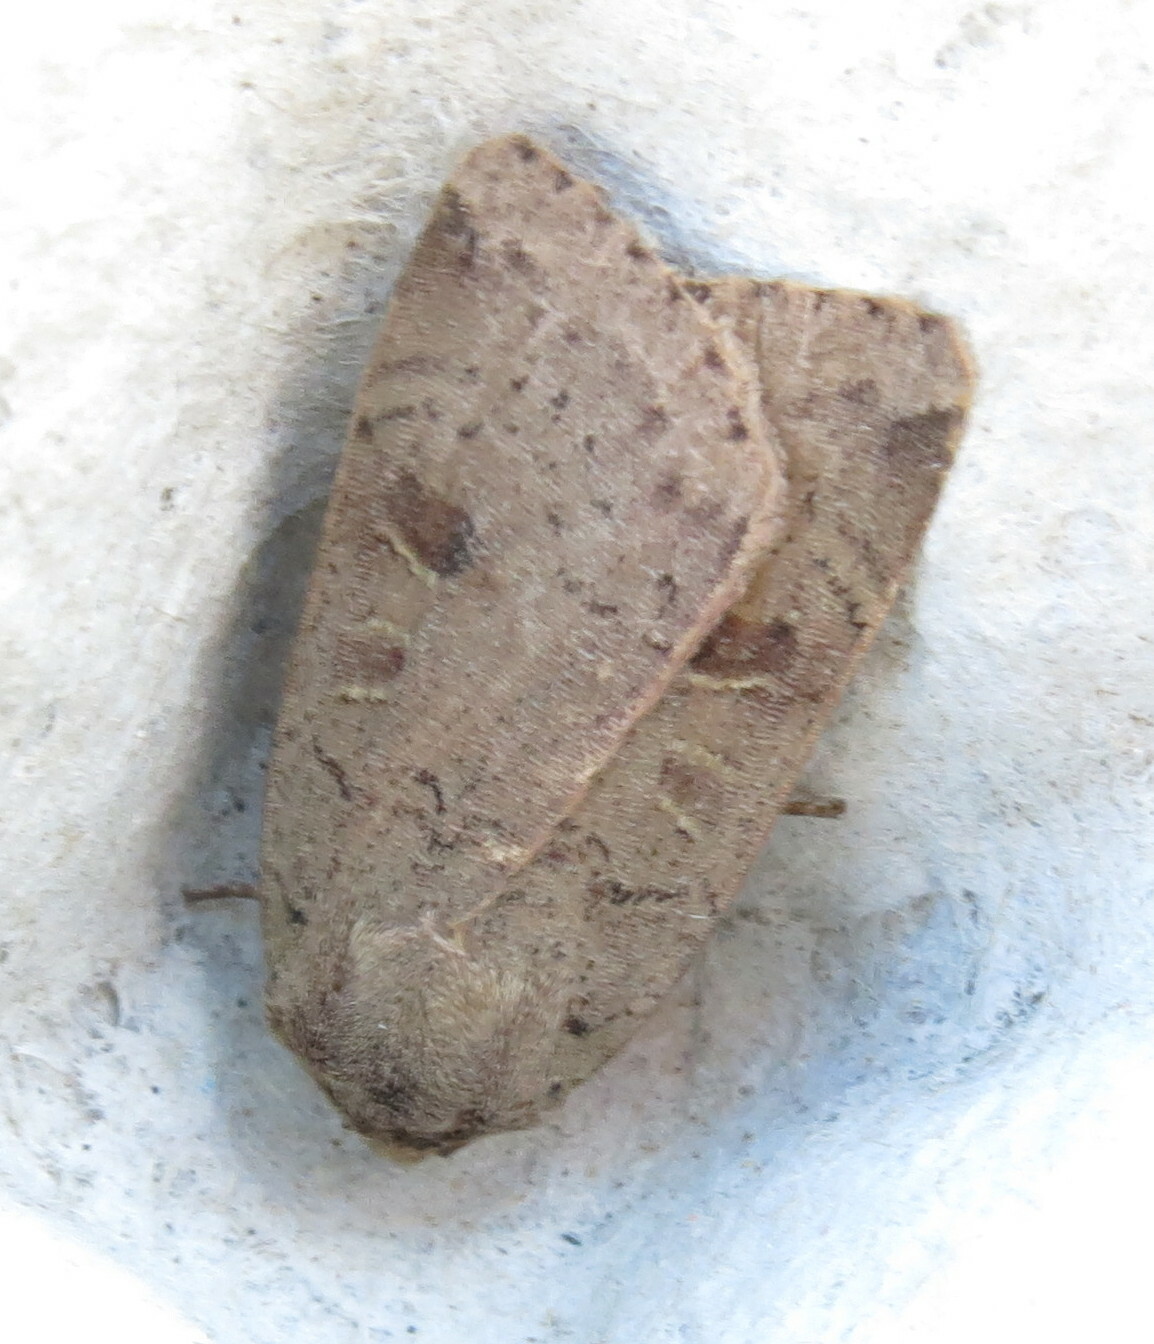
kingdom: Animalia
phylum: Arthropoda
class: Insecta
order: Lepidoptera
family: Noctuidae
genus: Noctua
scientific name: Noctua comes
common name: Lesser yellow underwing
